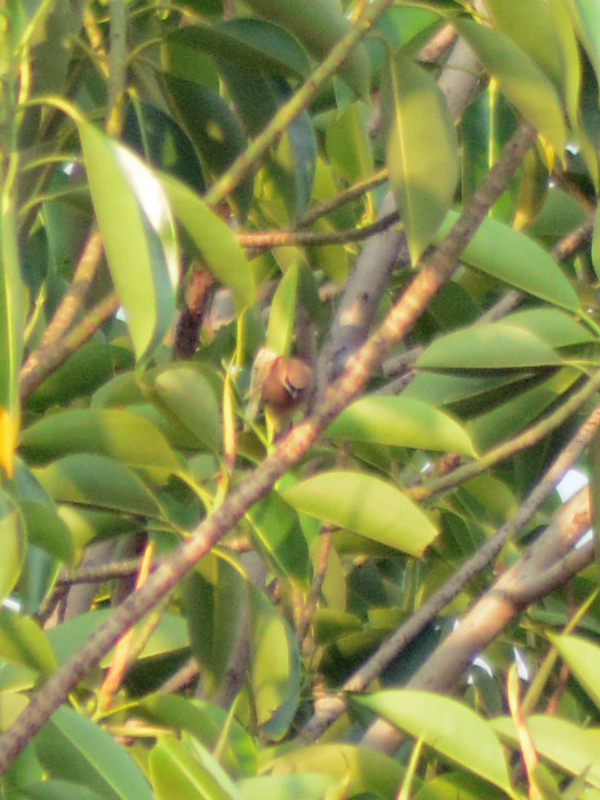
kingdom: Animalia
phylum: Chordata
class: Aves
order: Passeriformes
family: Bombycillidae
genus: Bombycilla
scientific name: Bombycilla cedrorum
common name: Cedar waxwing
